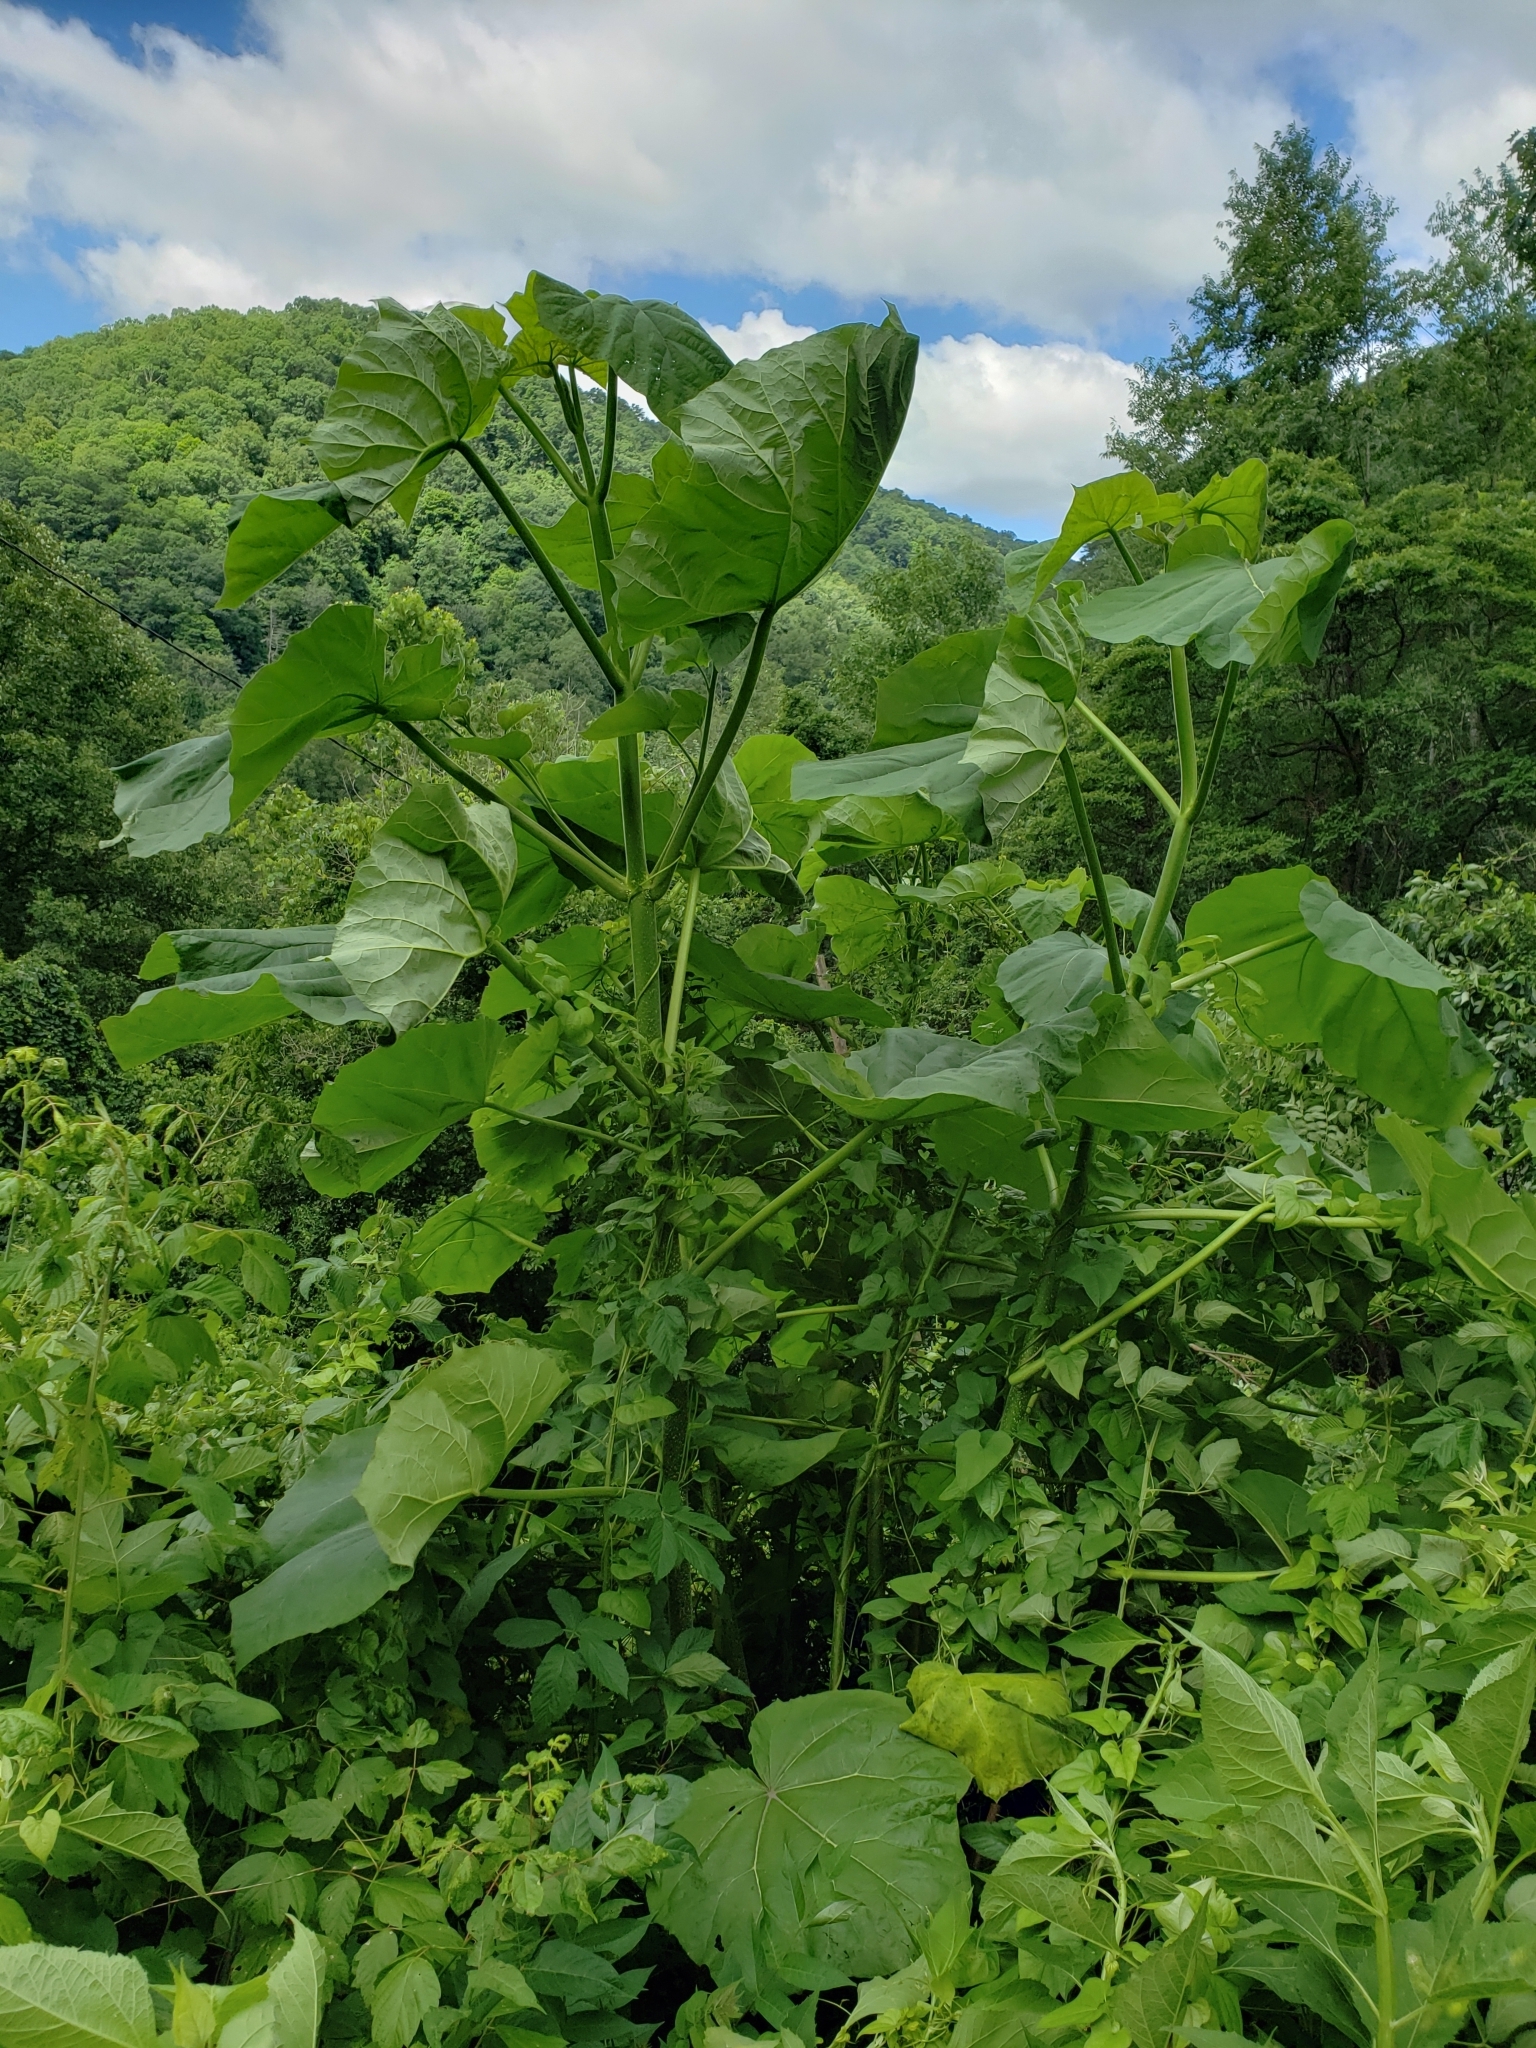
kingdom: Plantae
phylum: Tracheophyta
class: Magnoliopsida
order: Lamiales
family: Paulowniaceae
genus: Paulownia
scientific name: Paulownia tomentosa
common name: Foxglove-tree
